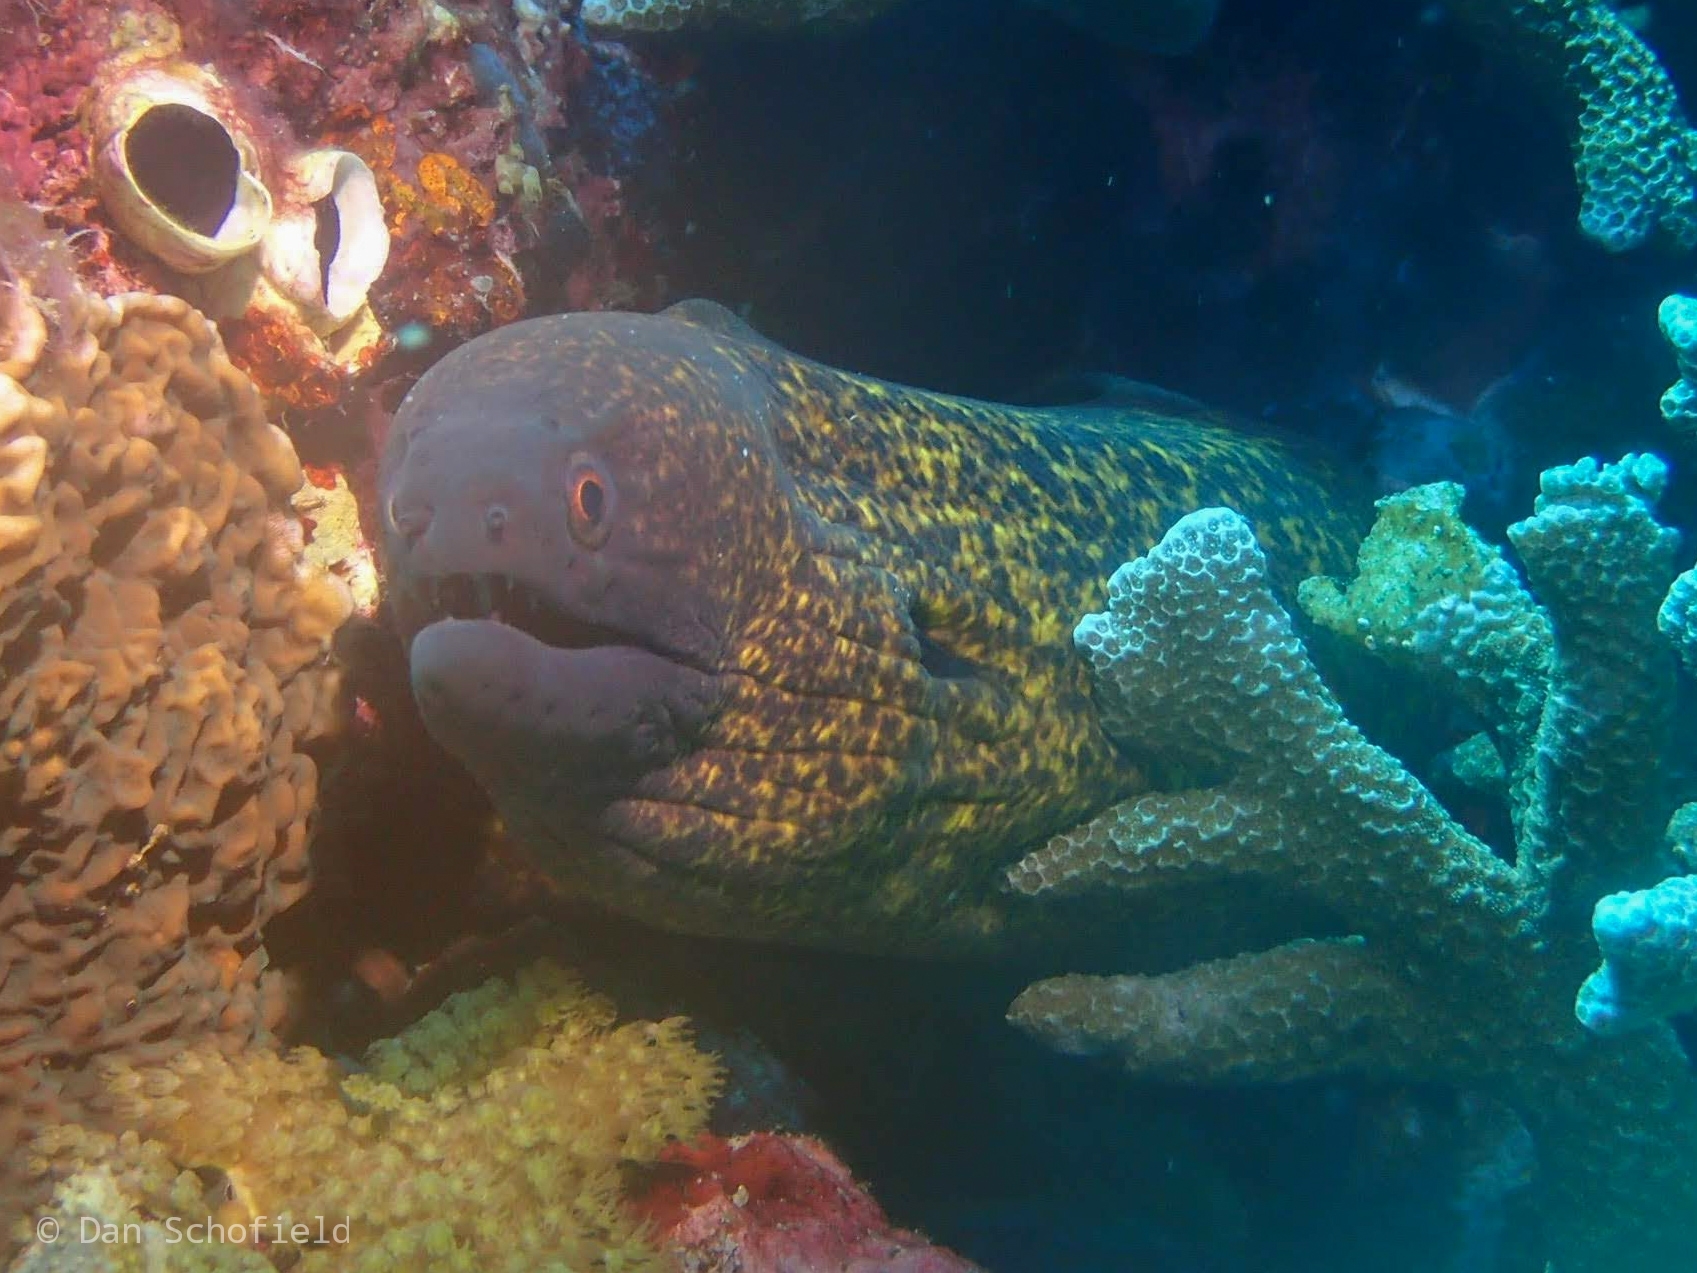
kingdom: Animalia
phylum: Chordata
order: Anguilliformes
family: Muraenidae
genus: Gymnothorax
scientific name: Gymnothorax flavimarginatus
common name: Yellow-edged moray
